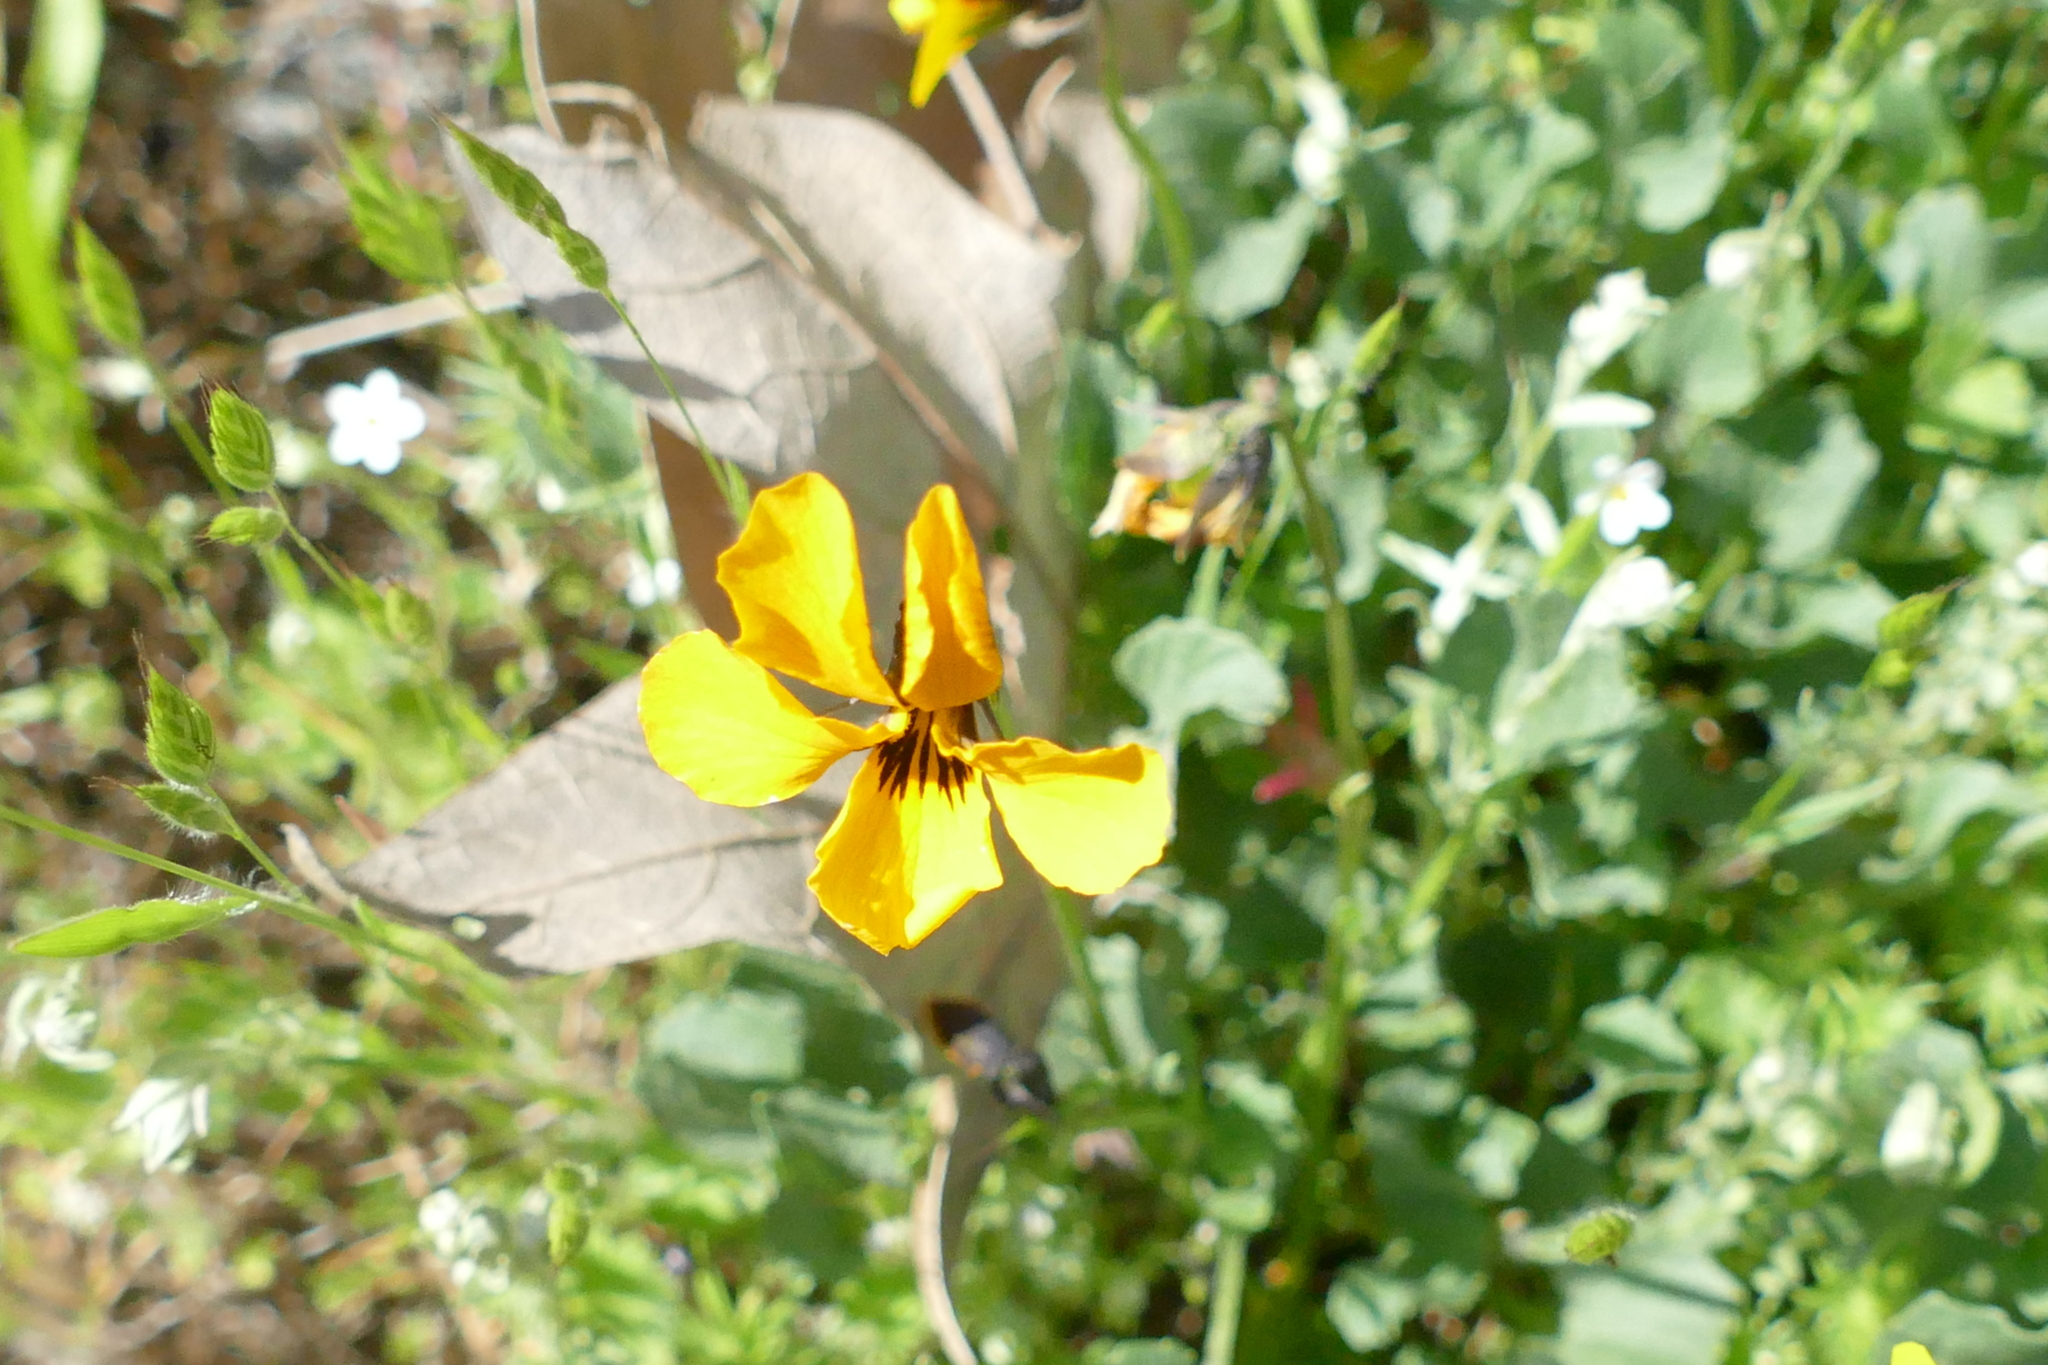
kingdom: Plantae
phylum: Tracheophyta
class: Magnoliopsida
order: Malpighiales
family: Violaceae
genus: Viola
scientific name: Viola pedunculata
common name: California golden violet
